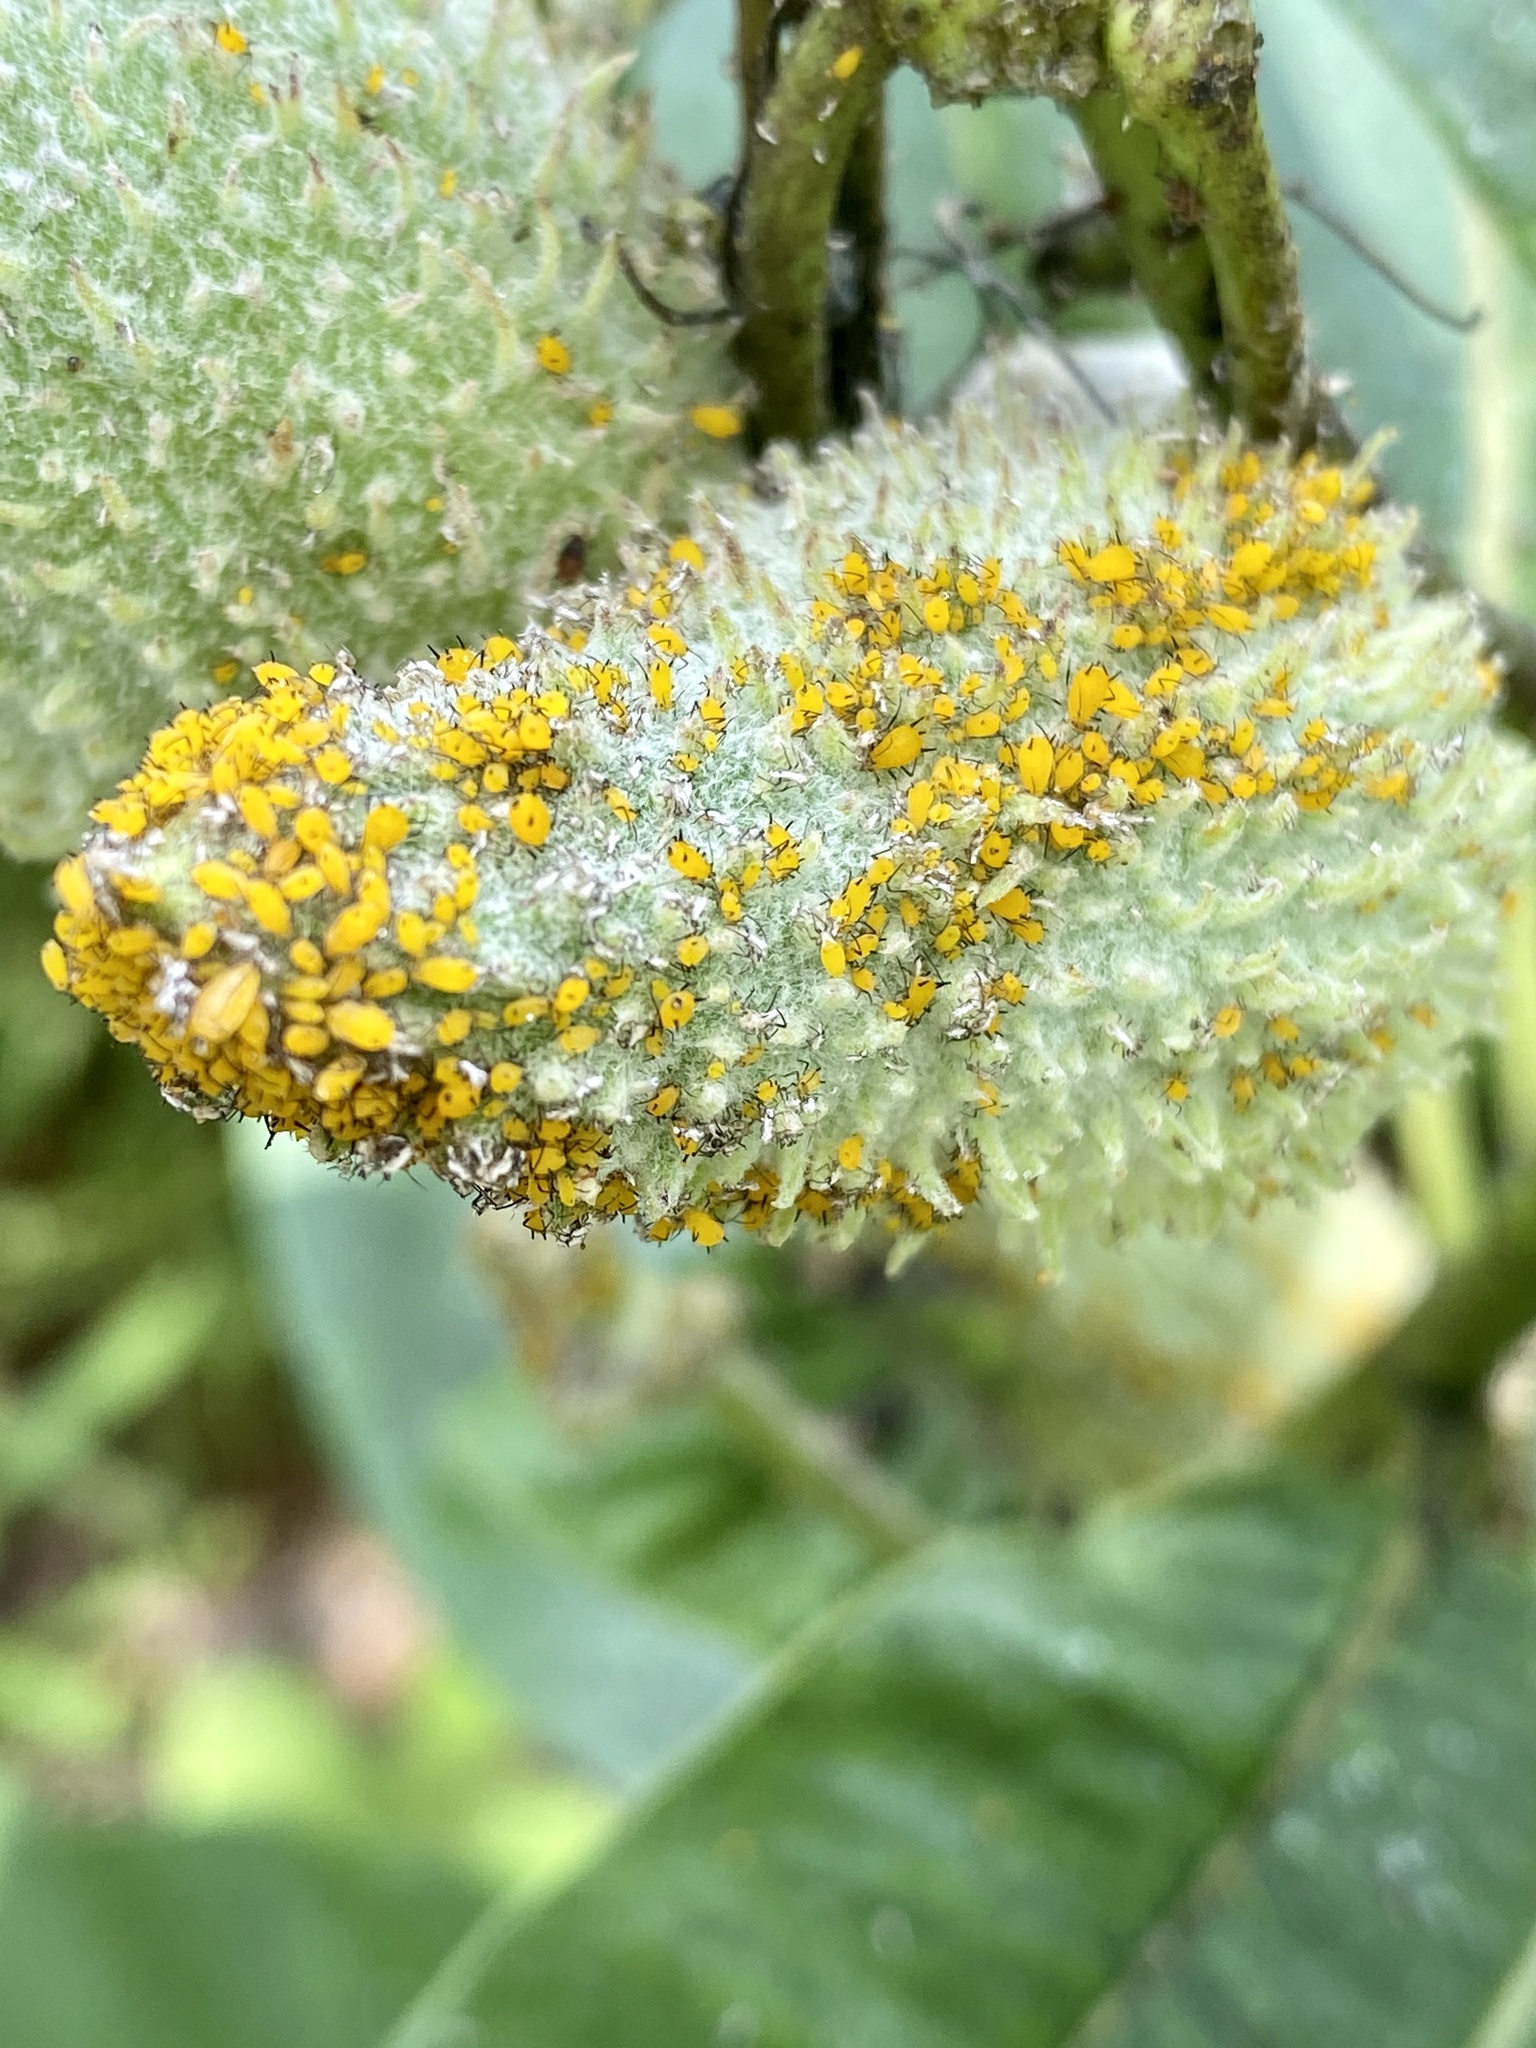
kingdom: Animalia
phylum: Arthropoda
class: Insecta
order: Hemiptera
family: Aphididae
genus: Aphis
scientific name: Aphis nerii
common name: Oleander aphid
